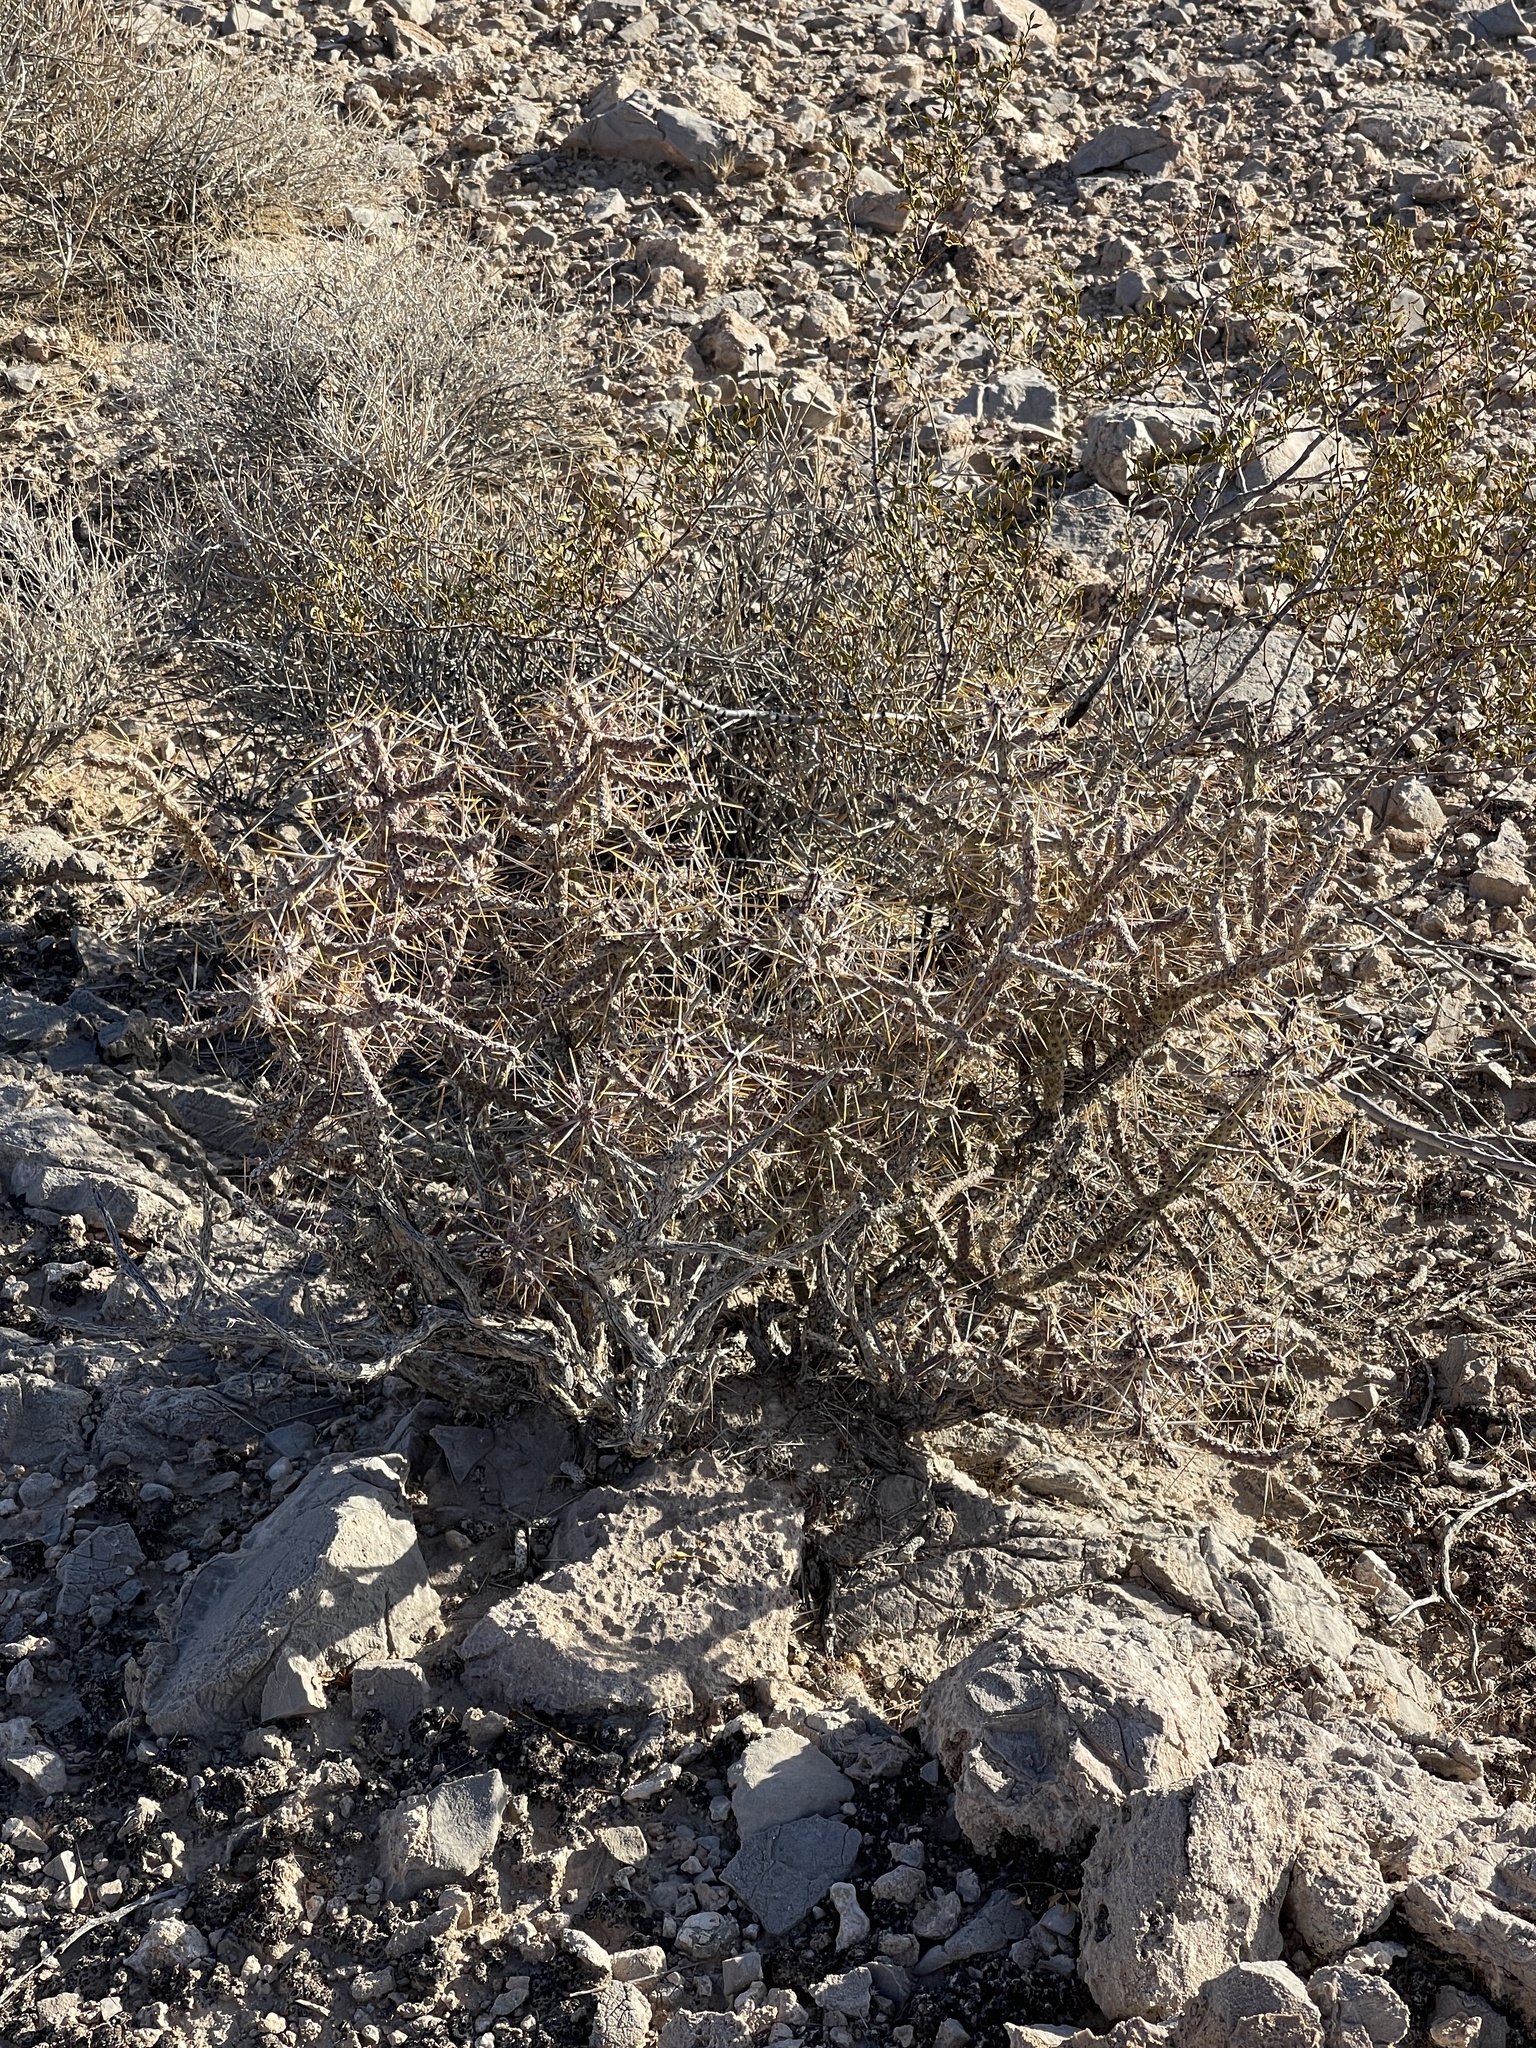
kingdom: Plantae
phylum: Tracheophyta
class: Magnoliopsida
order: Caryophyllales
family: Cactaceae
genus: Cylindropuntia
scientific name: Cylindropuntia ramosissima
